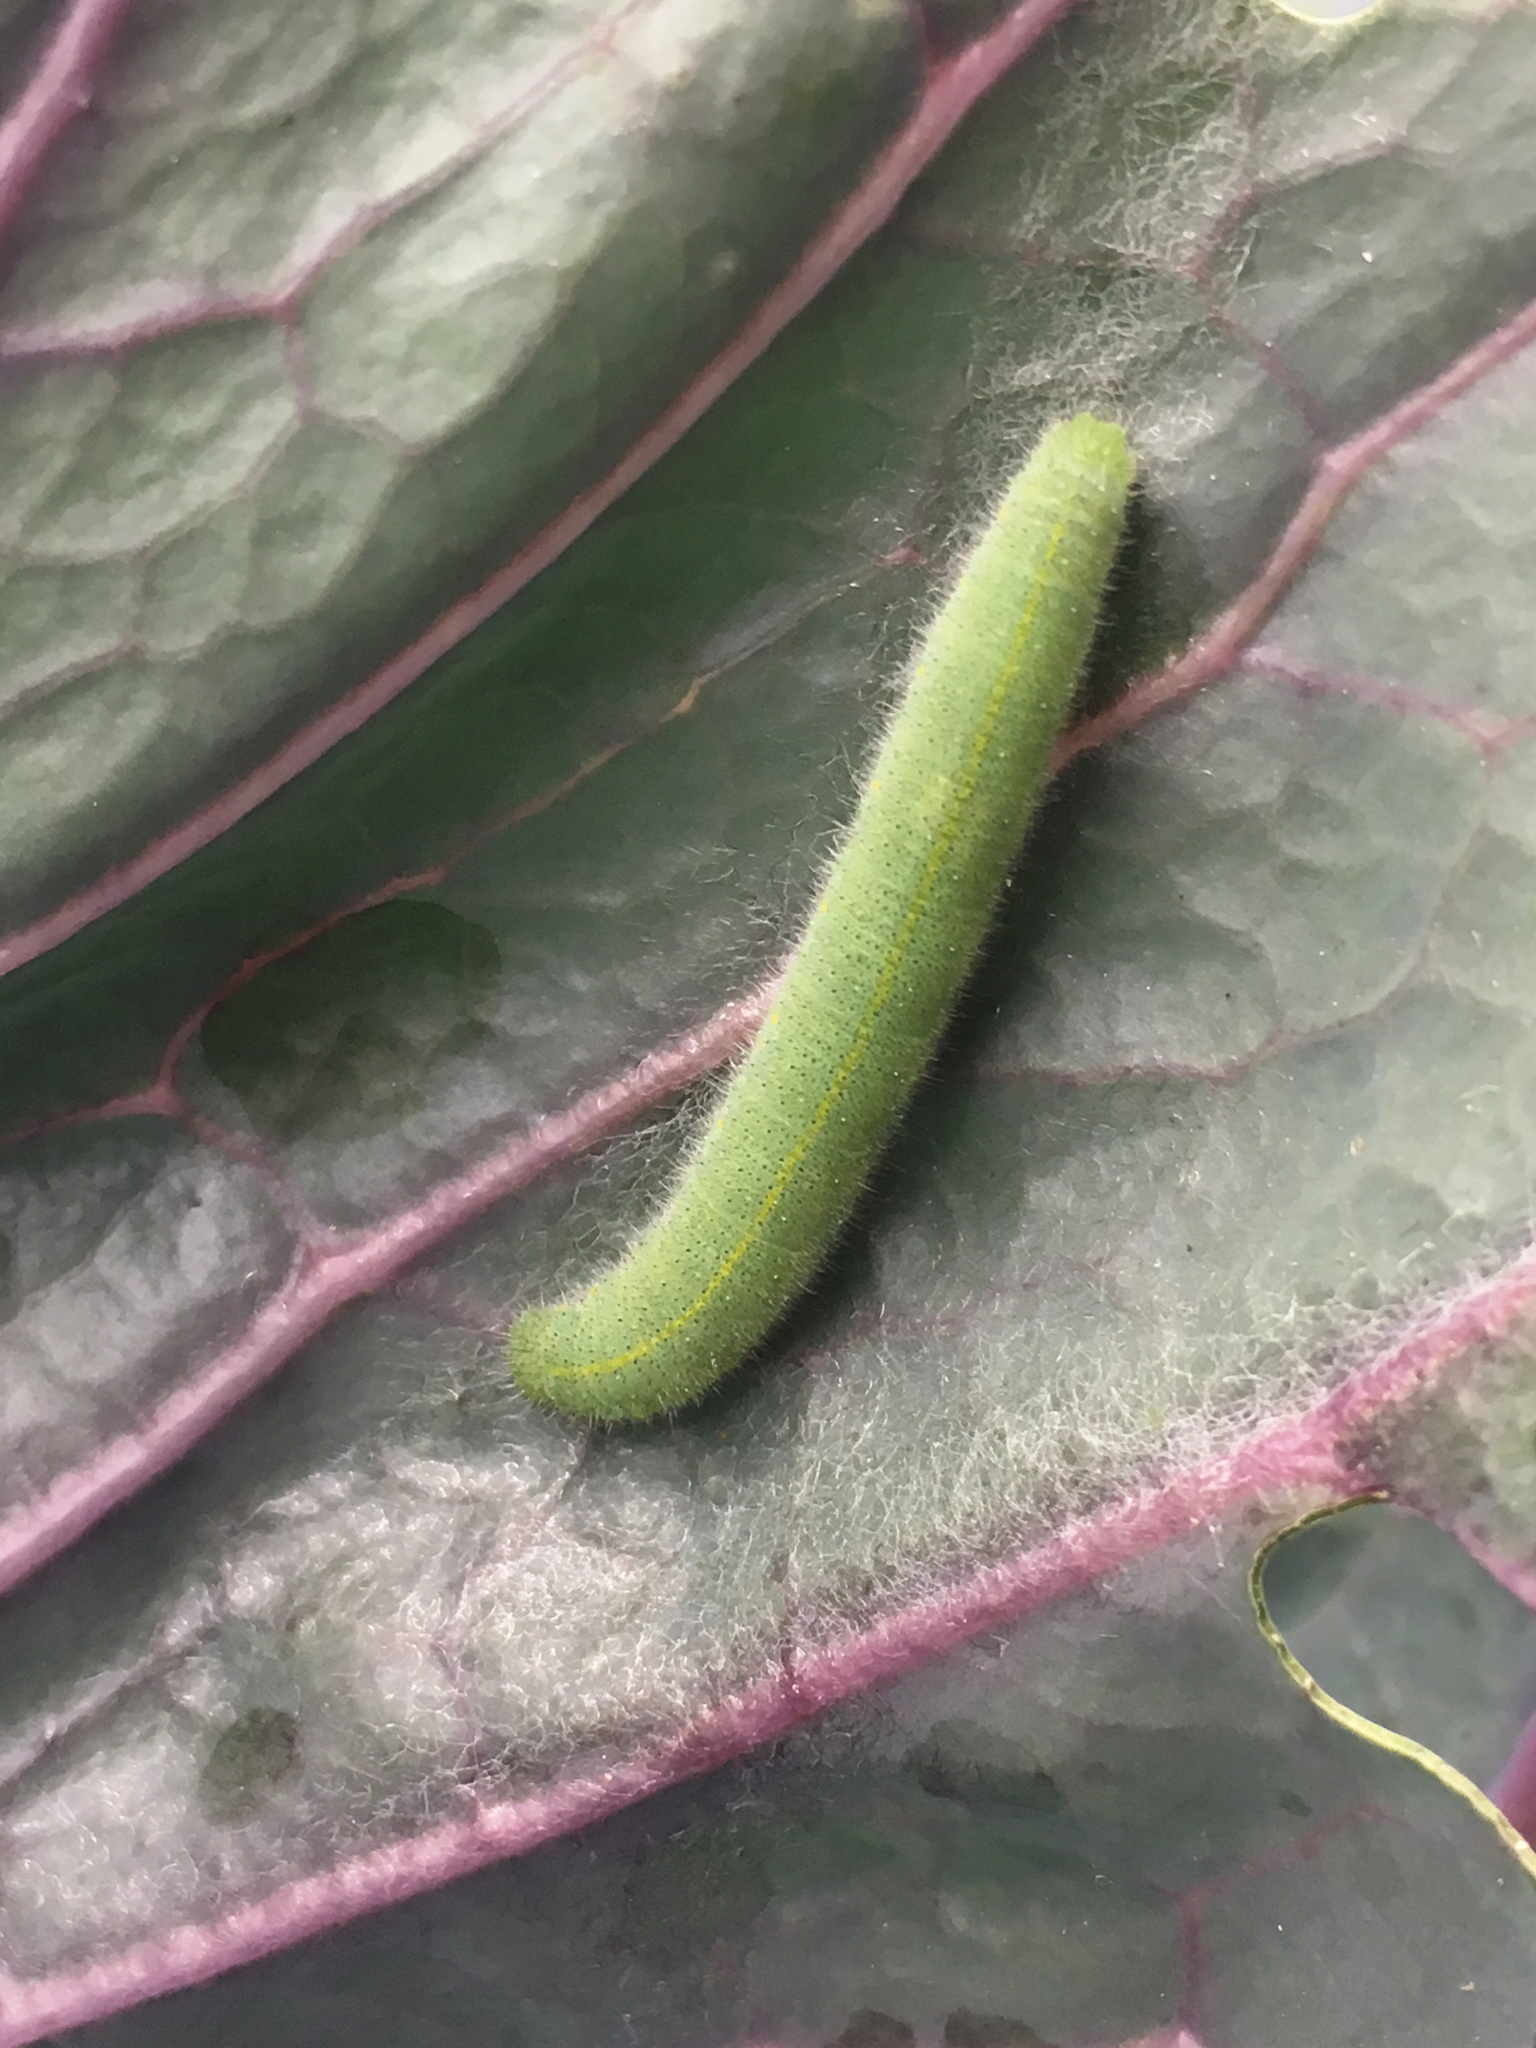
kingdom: Animalia
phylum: Arthropoda
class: Insecta
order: Lepidoptera
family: Pieridae
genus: Pieris
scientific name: Pieris rapae
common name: Small white
